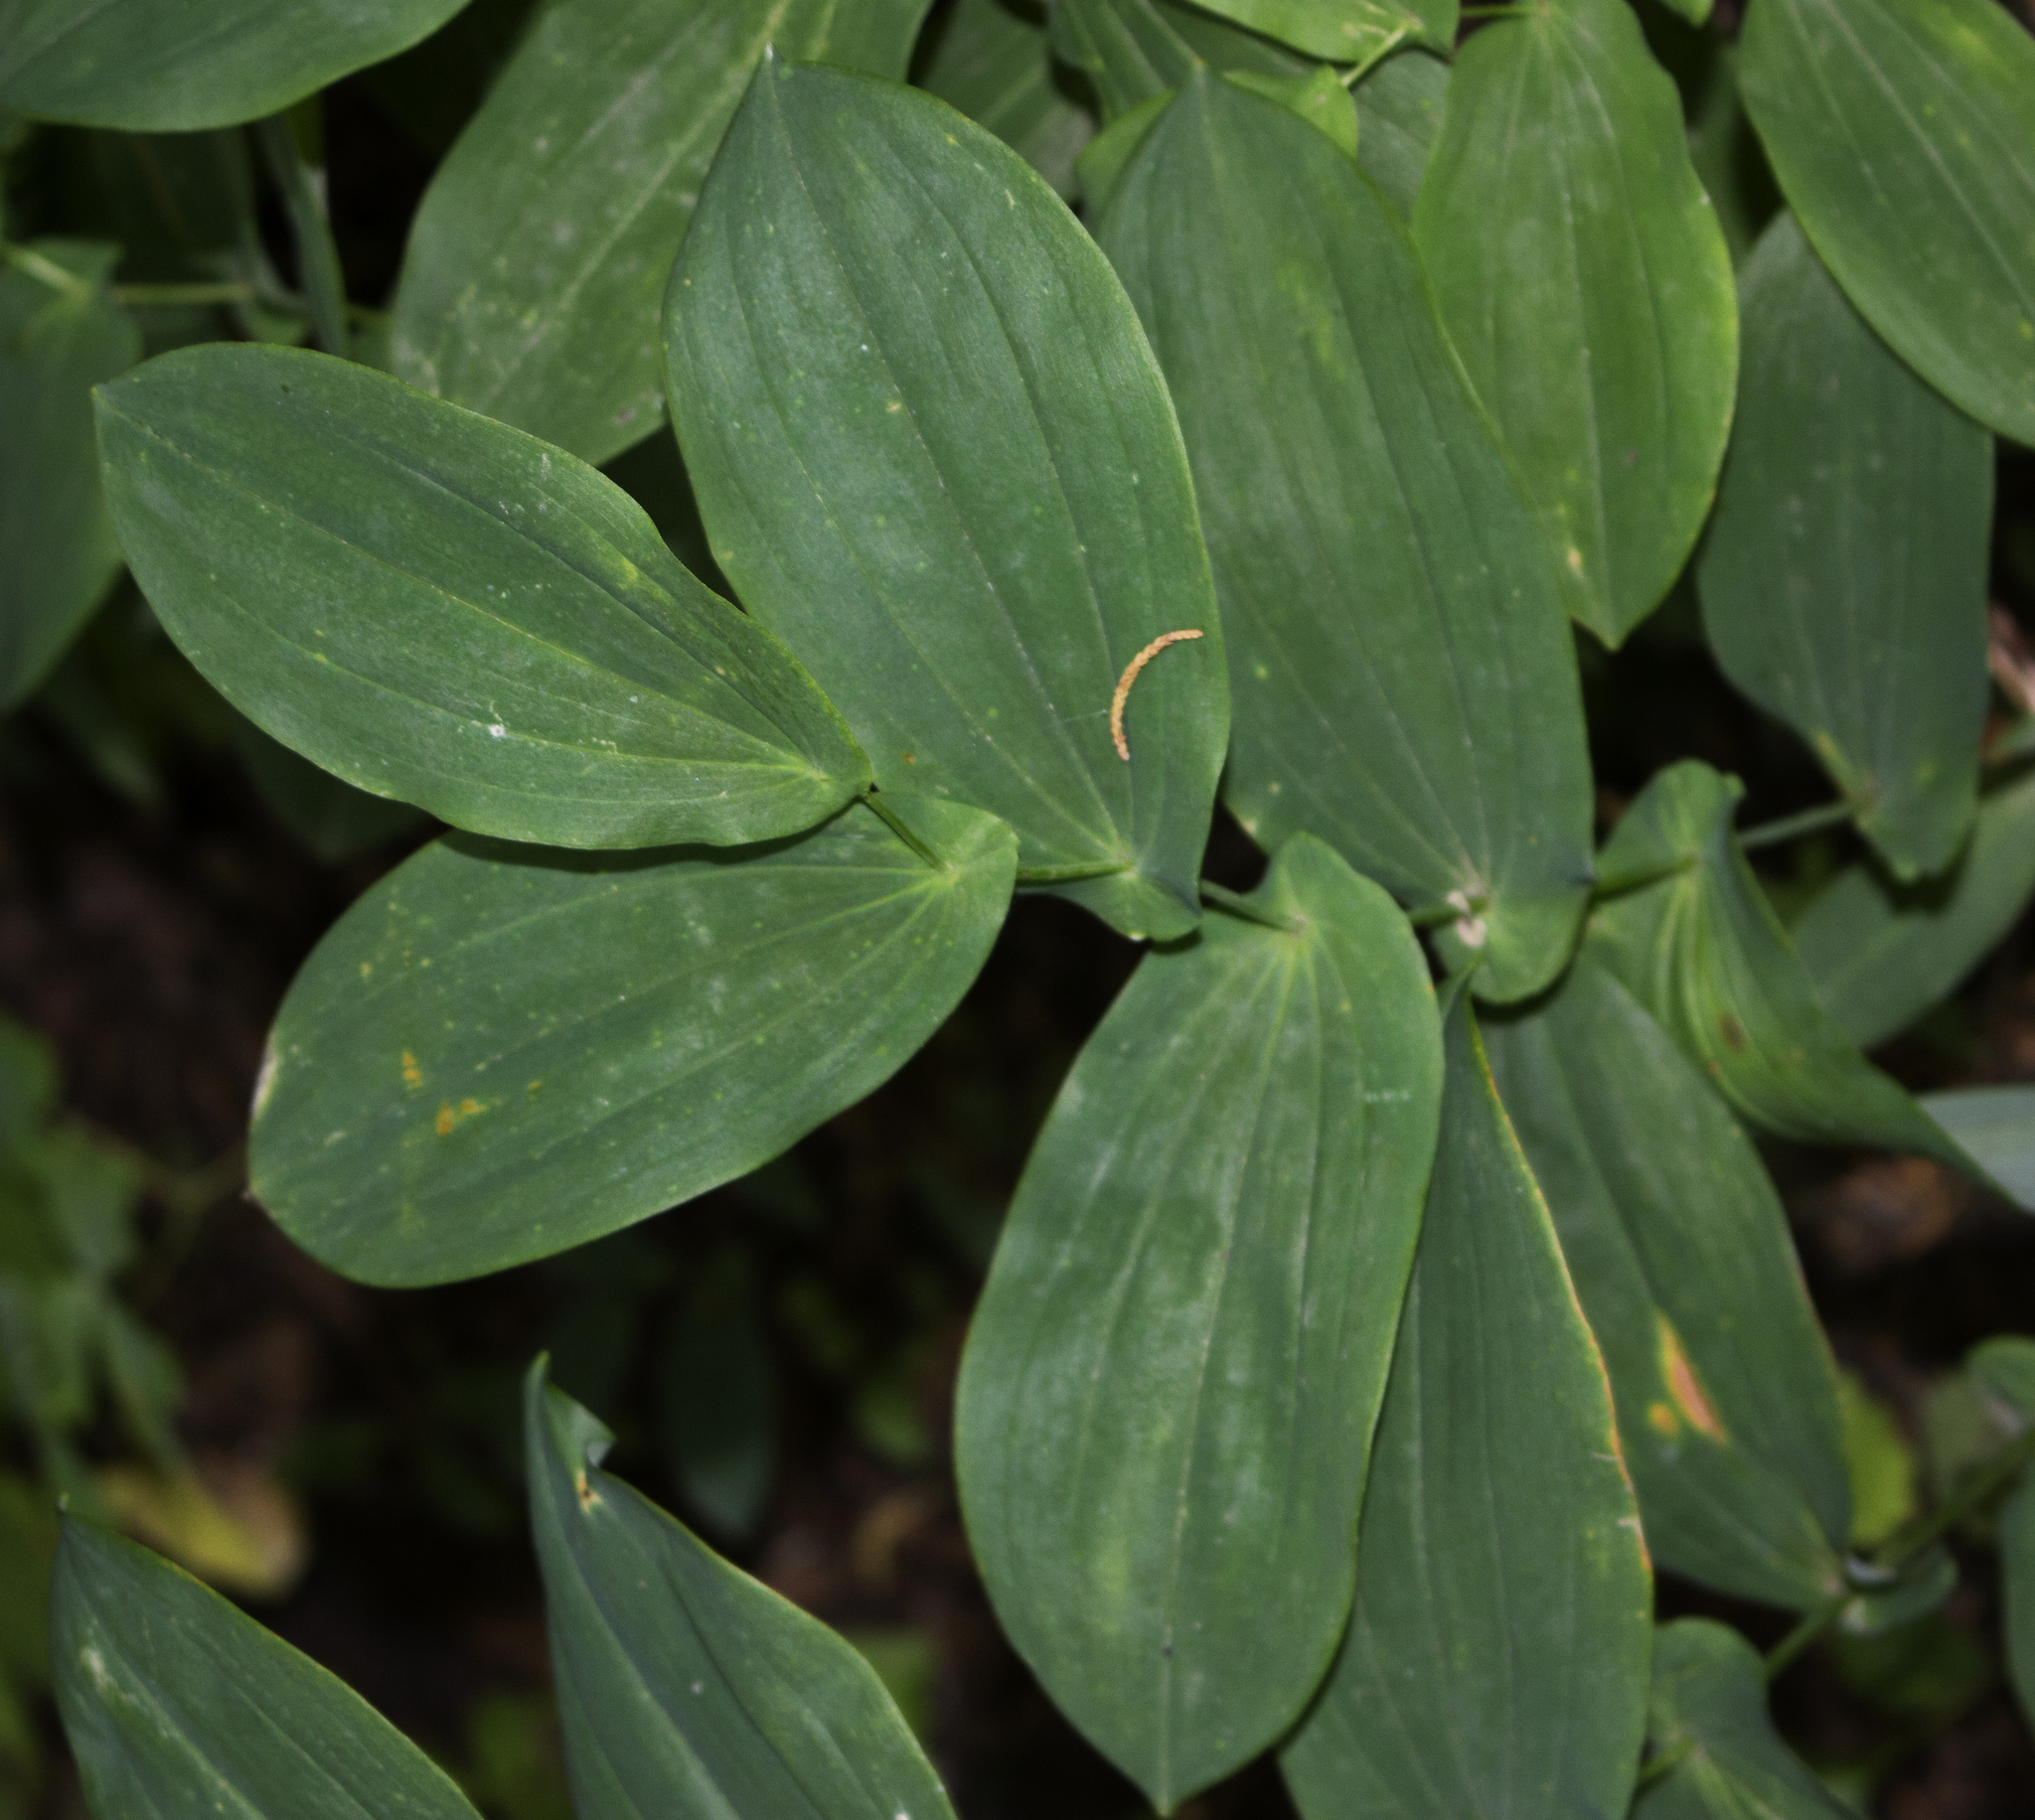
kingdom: Plantae
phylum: Tracheophyta
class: Liliopsida
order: Liliales
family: Colchicaceae
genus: Uvularia
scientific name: Uvularia grandiflora
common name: Bellwort
